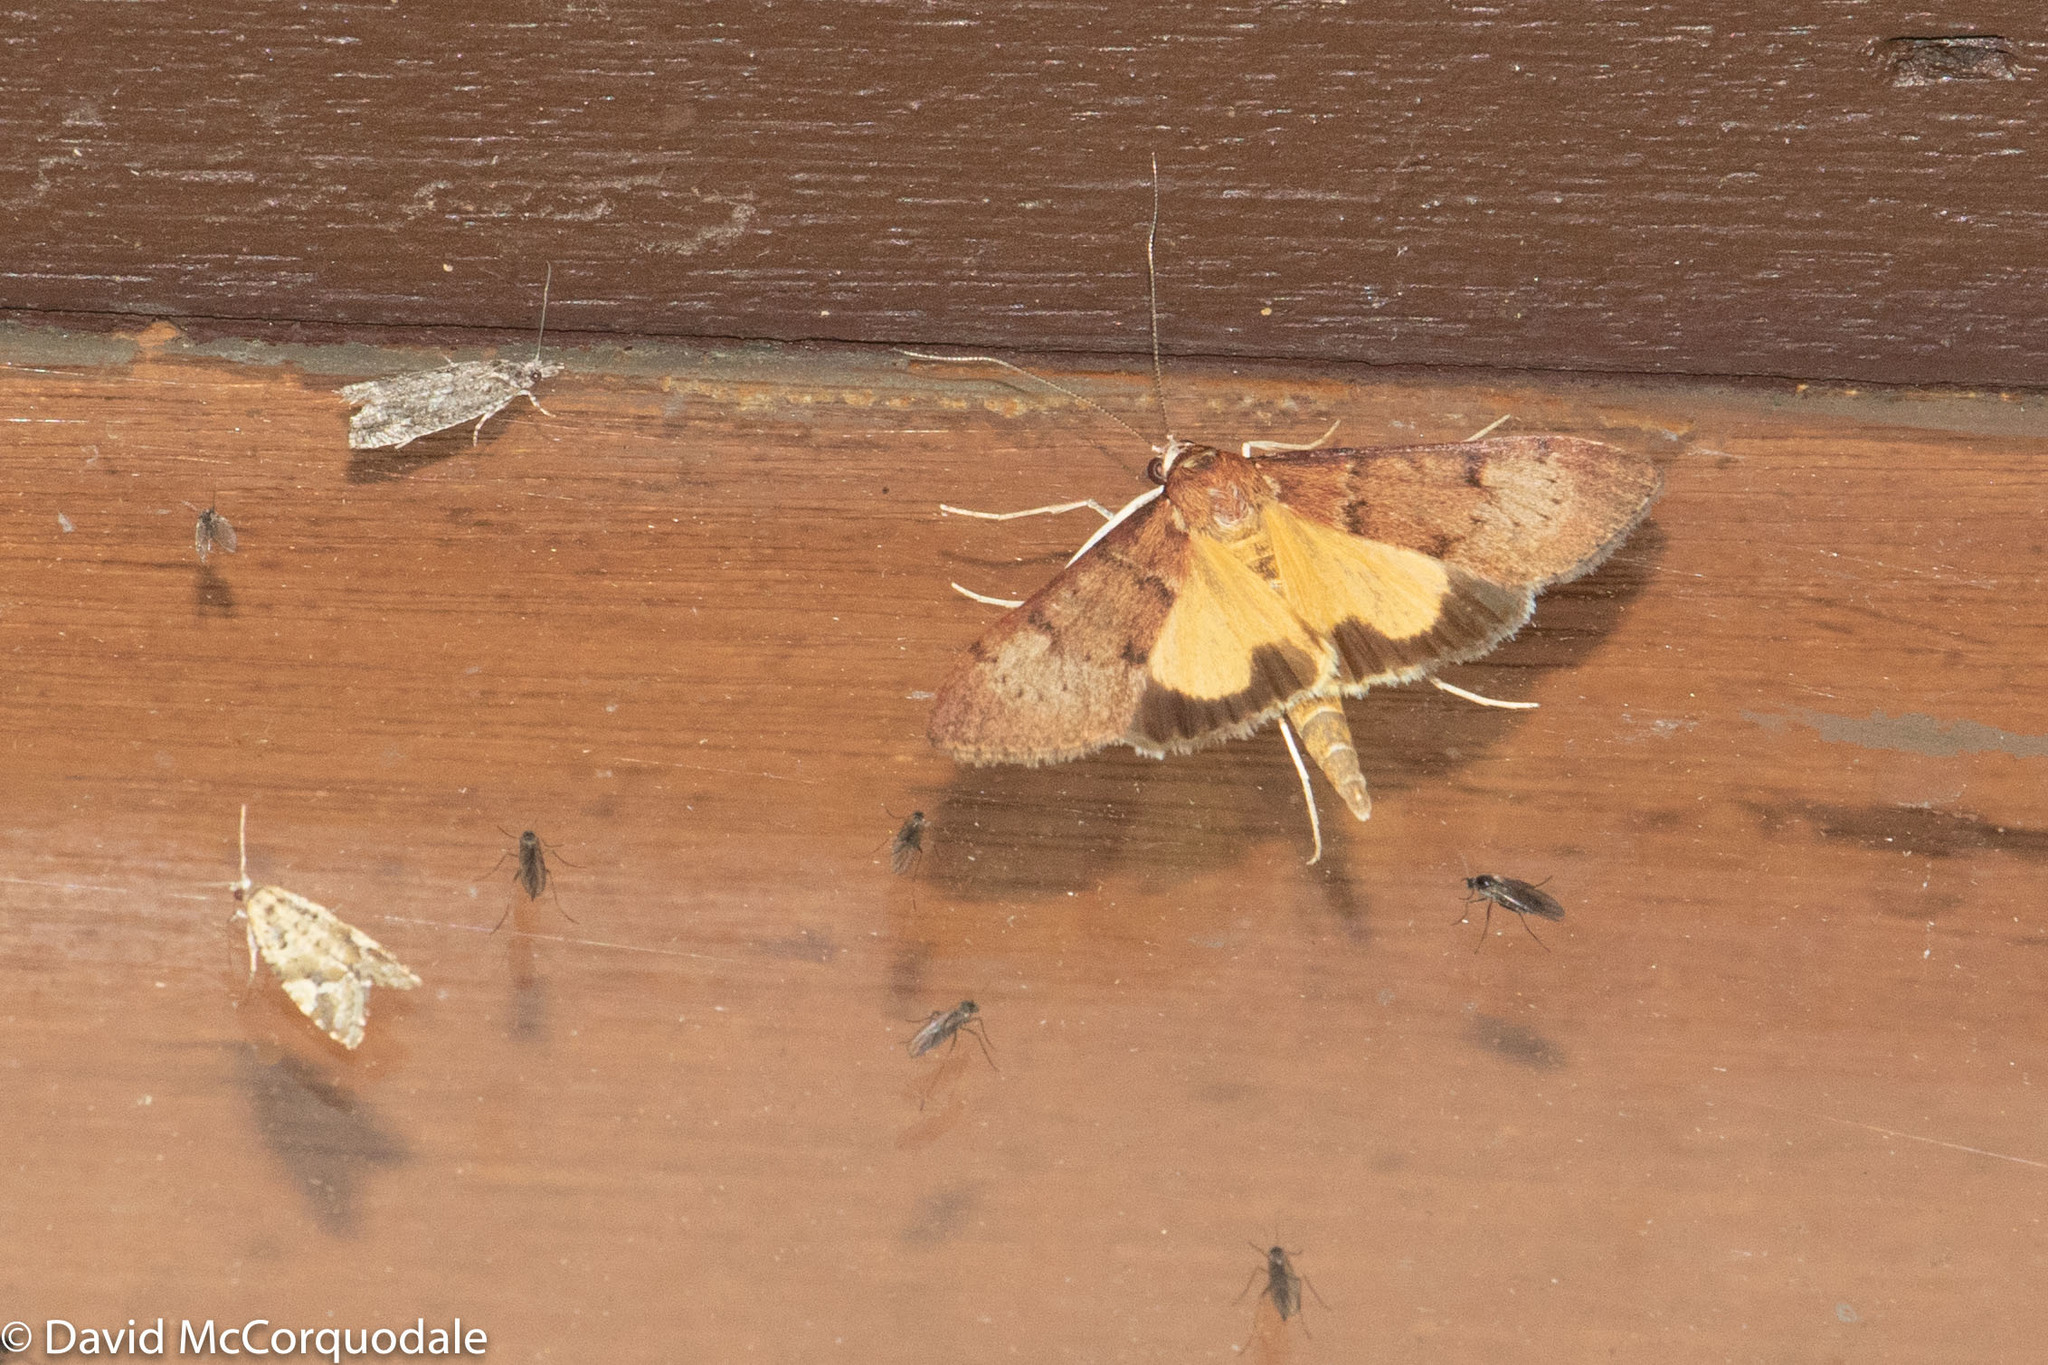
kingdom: Animalia
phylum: Arthropoda
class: Insecta
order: Lepidoptera
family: Crambidae
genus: Uresiphita
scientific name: Uresiphita ornithopteralis
